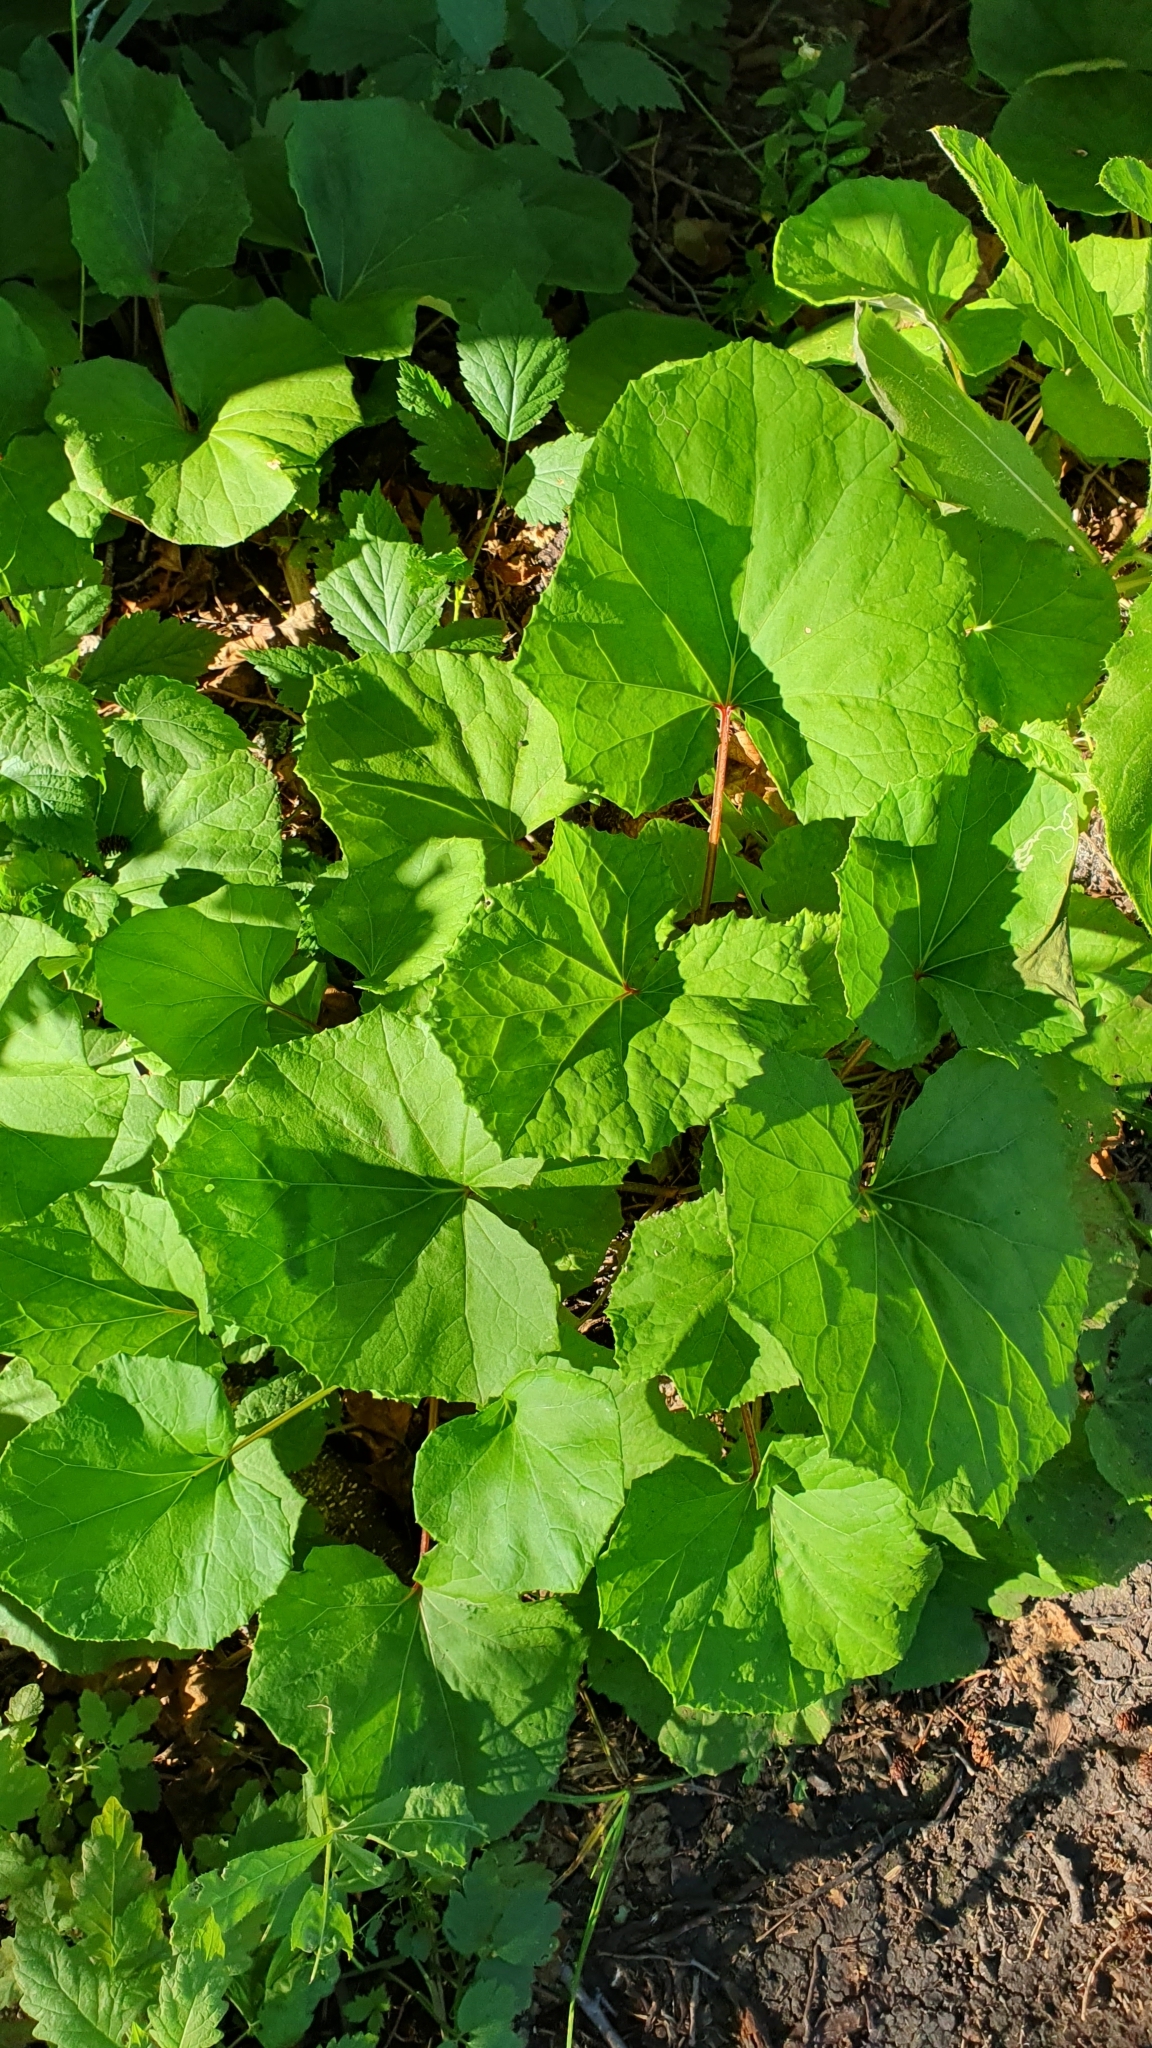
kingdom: Plantae
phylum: Tracheophyta
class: Magnoliopsida
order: Asterales
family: Asteraceae
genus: Tussilago
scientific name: Tussilago farfara
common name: Coltsfoot
